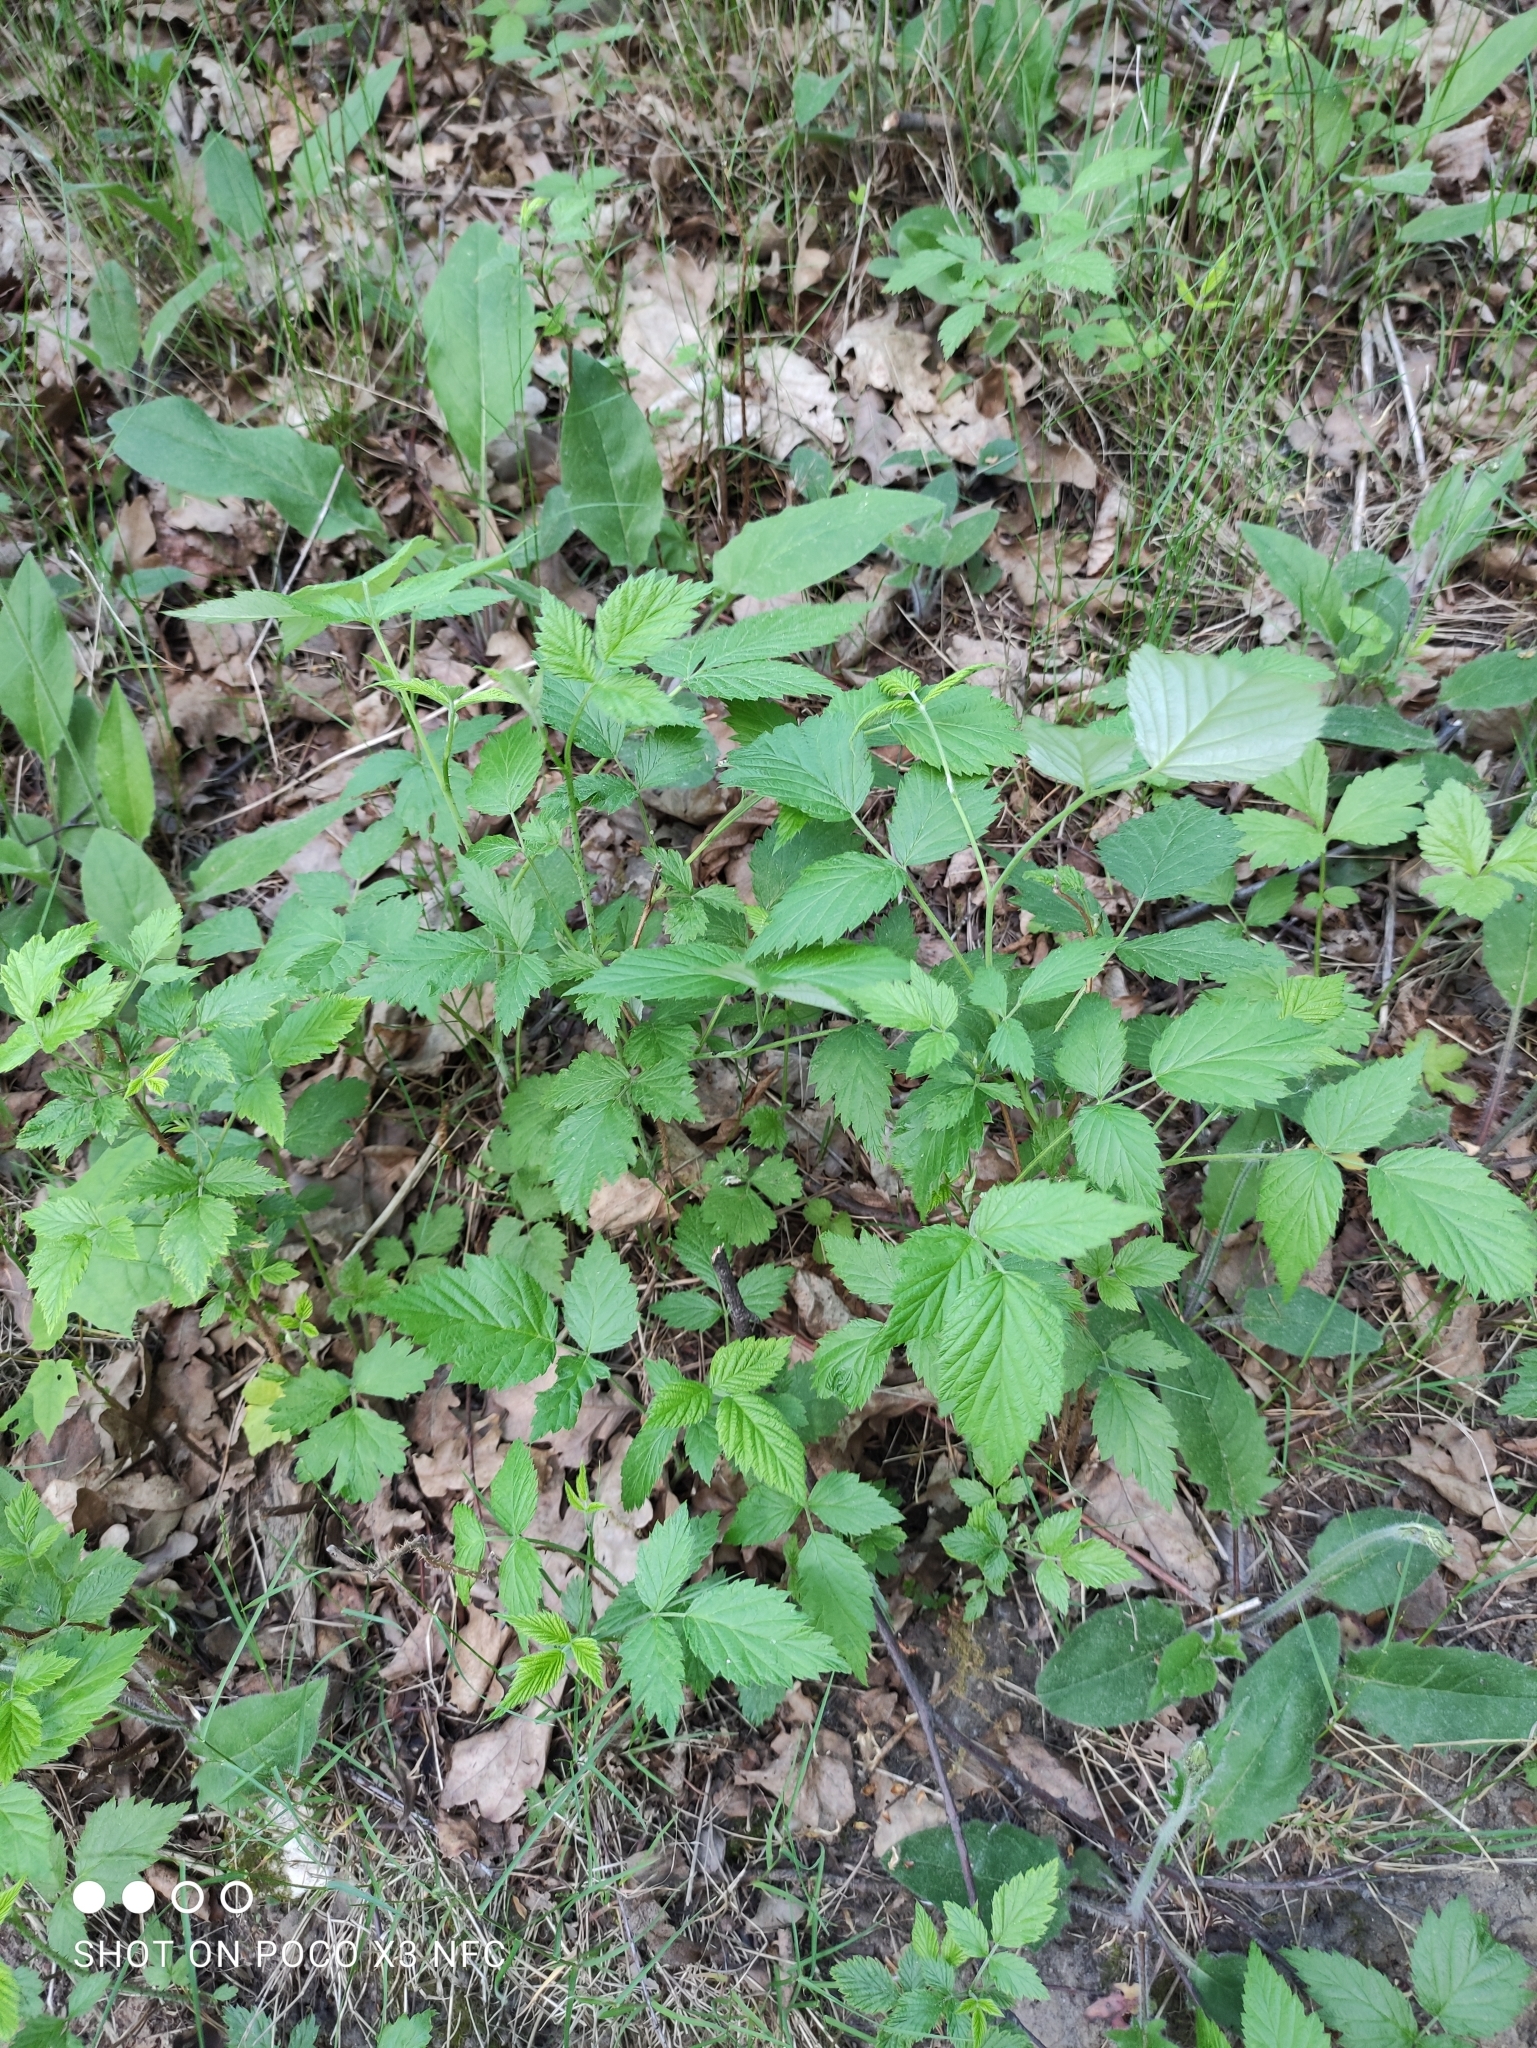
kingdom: Plantae
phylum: Tracheophyta
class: Magnoliopsida
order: Rosales
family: Rosaceae
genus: Rubus
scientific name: Rubus idaeus
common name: Raspberry
